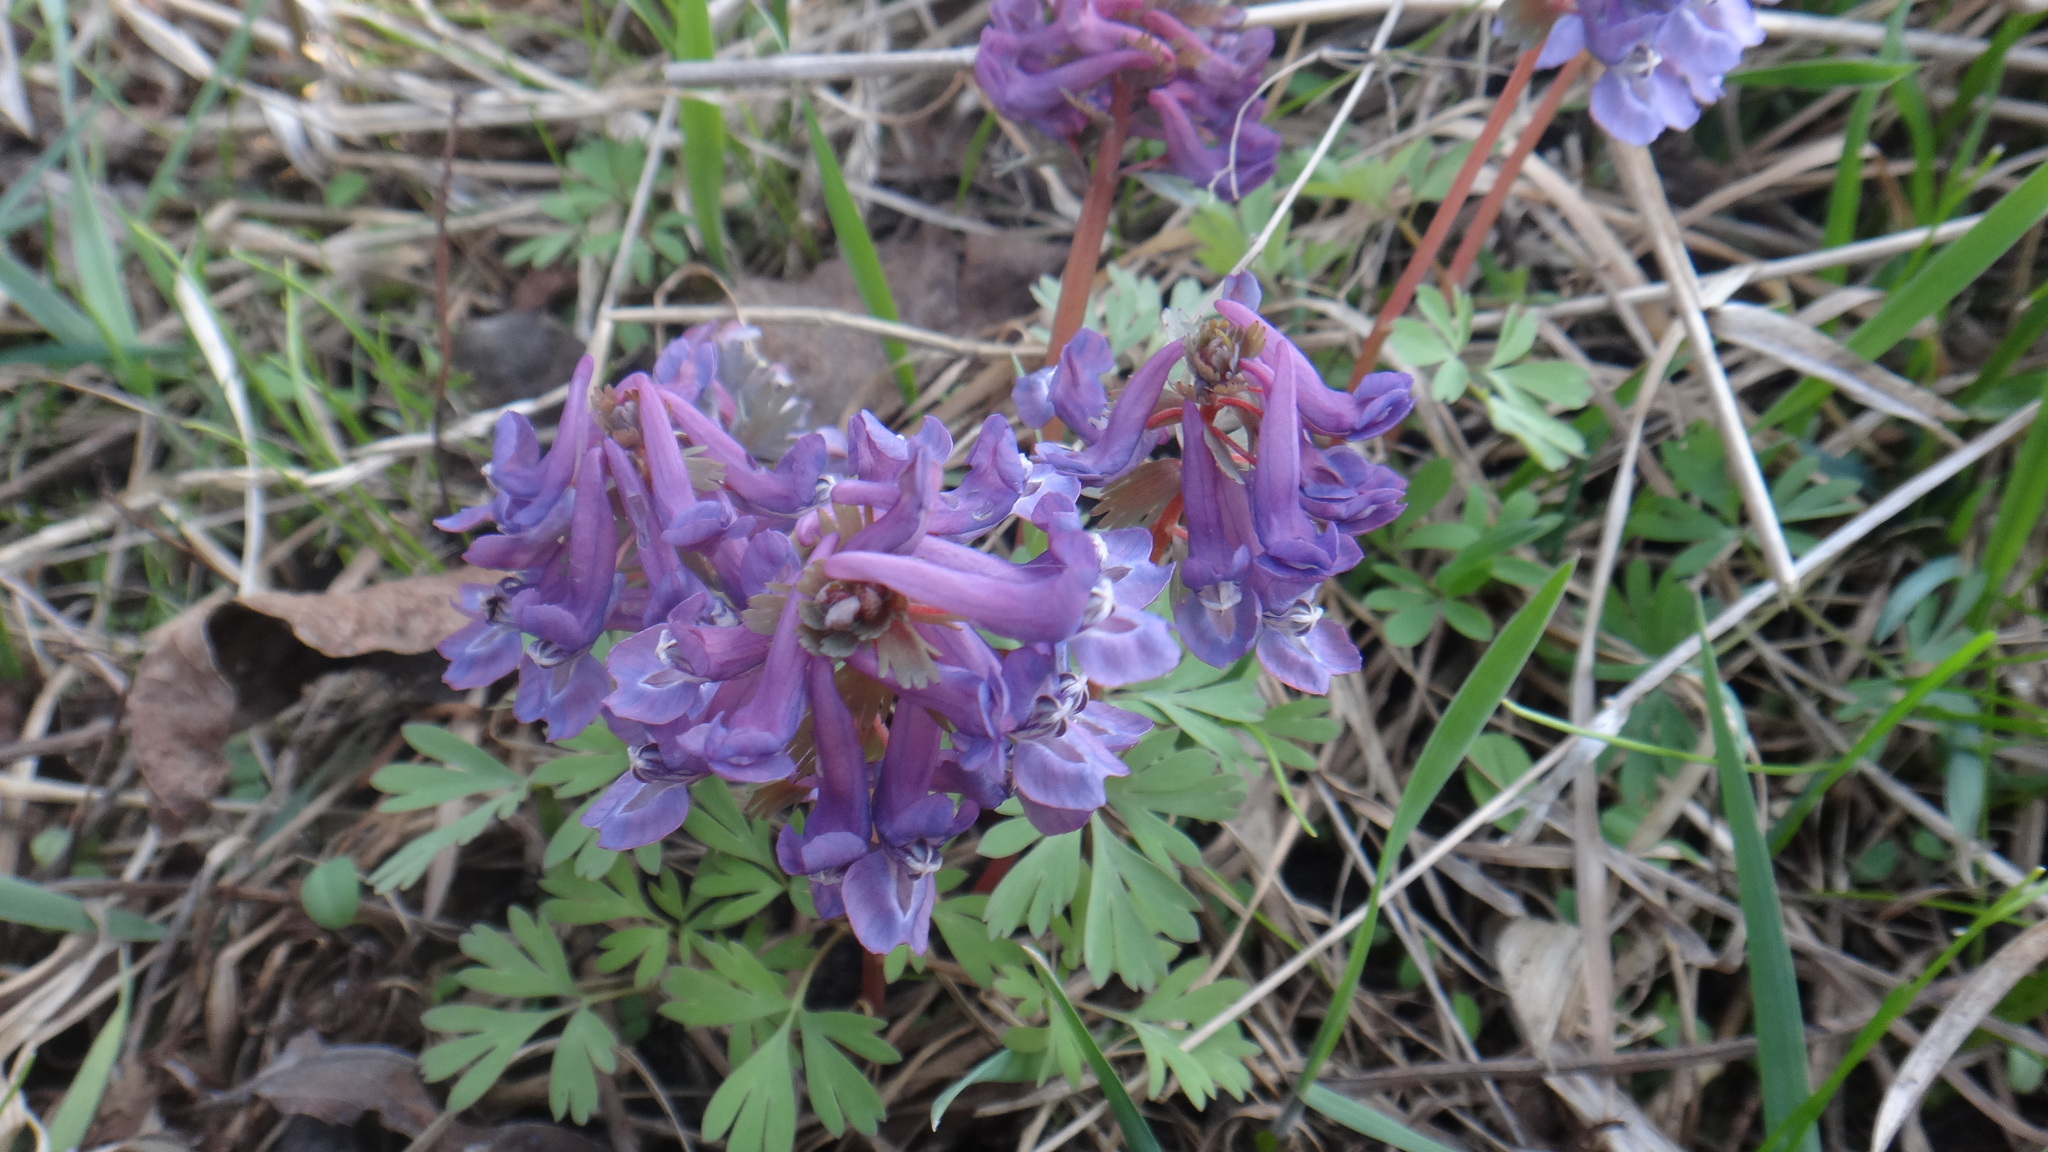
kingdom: Plantae
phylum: Tracheophyta
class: Magnoliopsida
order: Ranunculales
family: Papaveraceae
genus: Corydalis
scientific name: Corydalis solida
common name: Bird-in-a-bush
